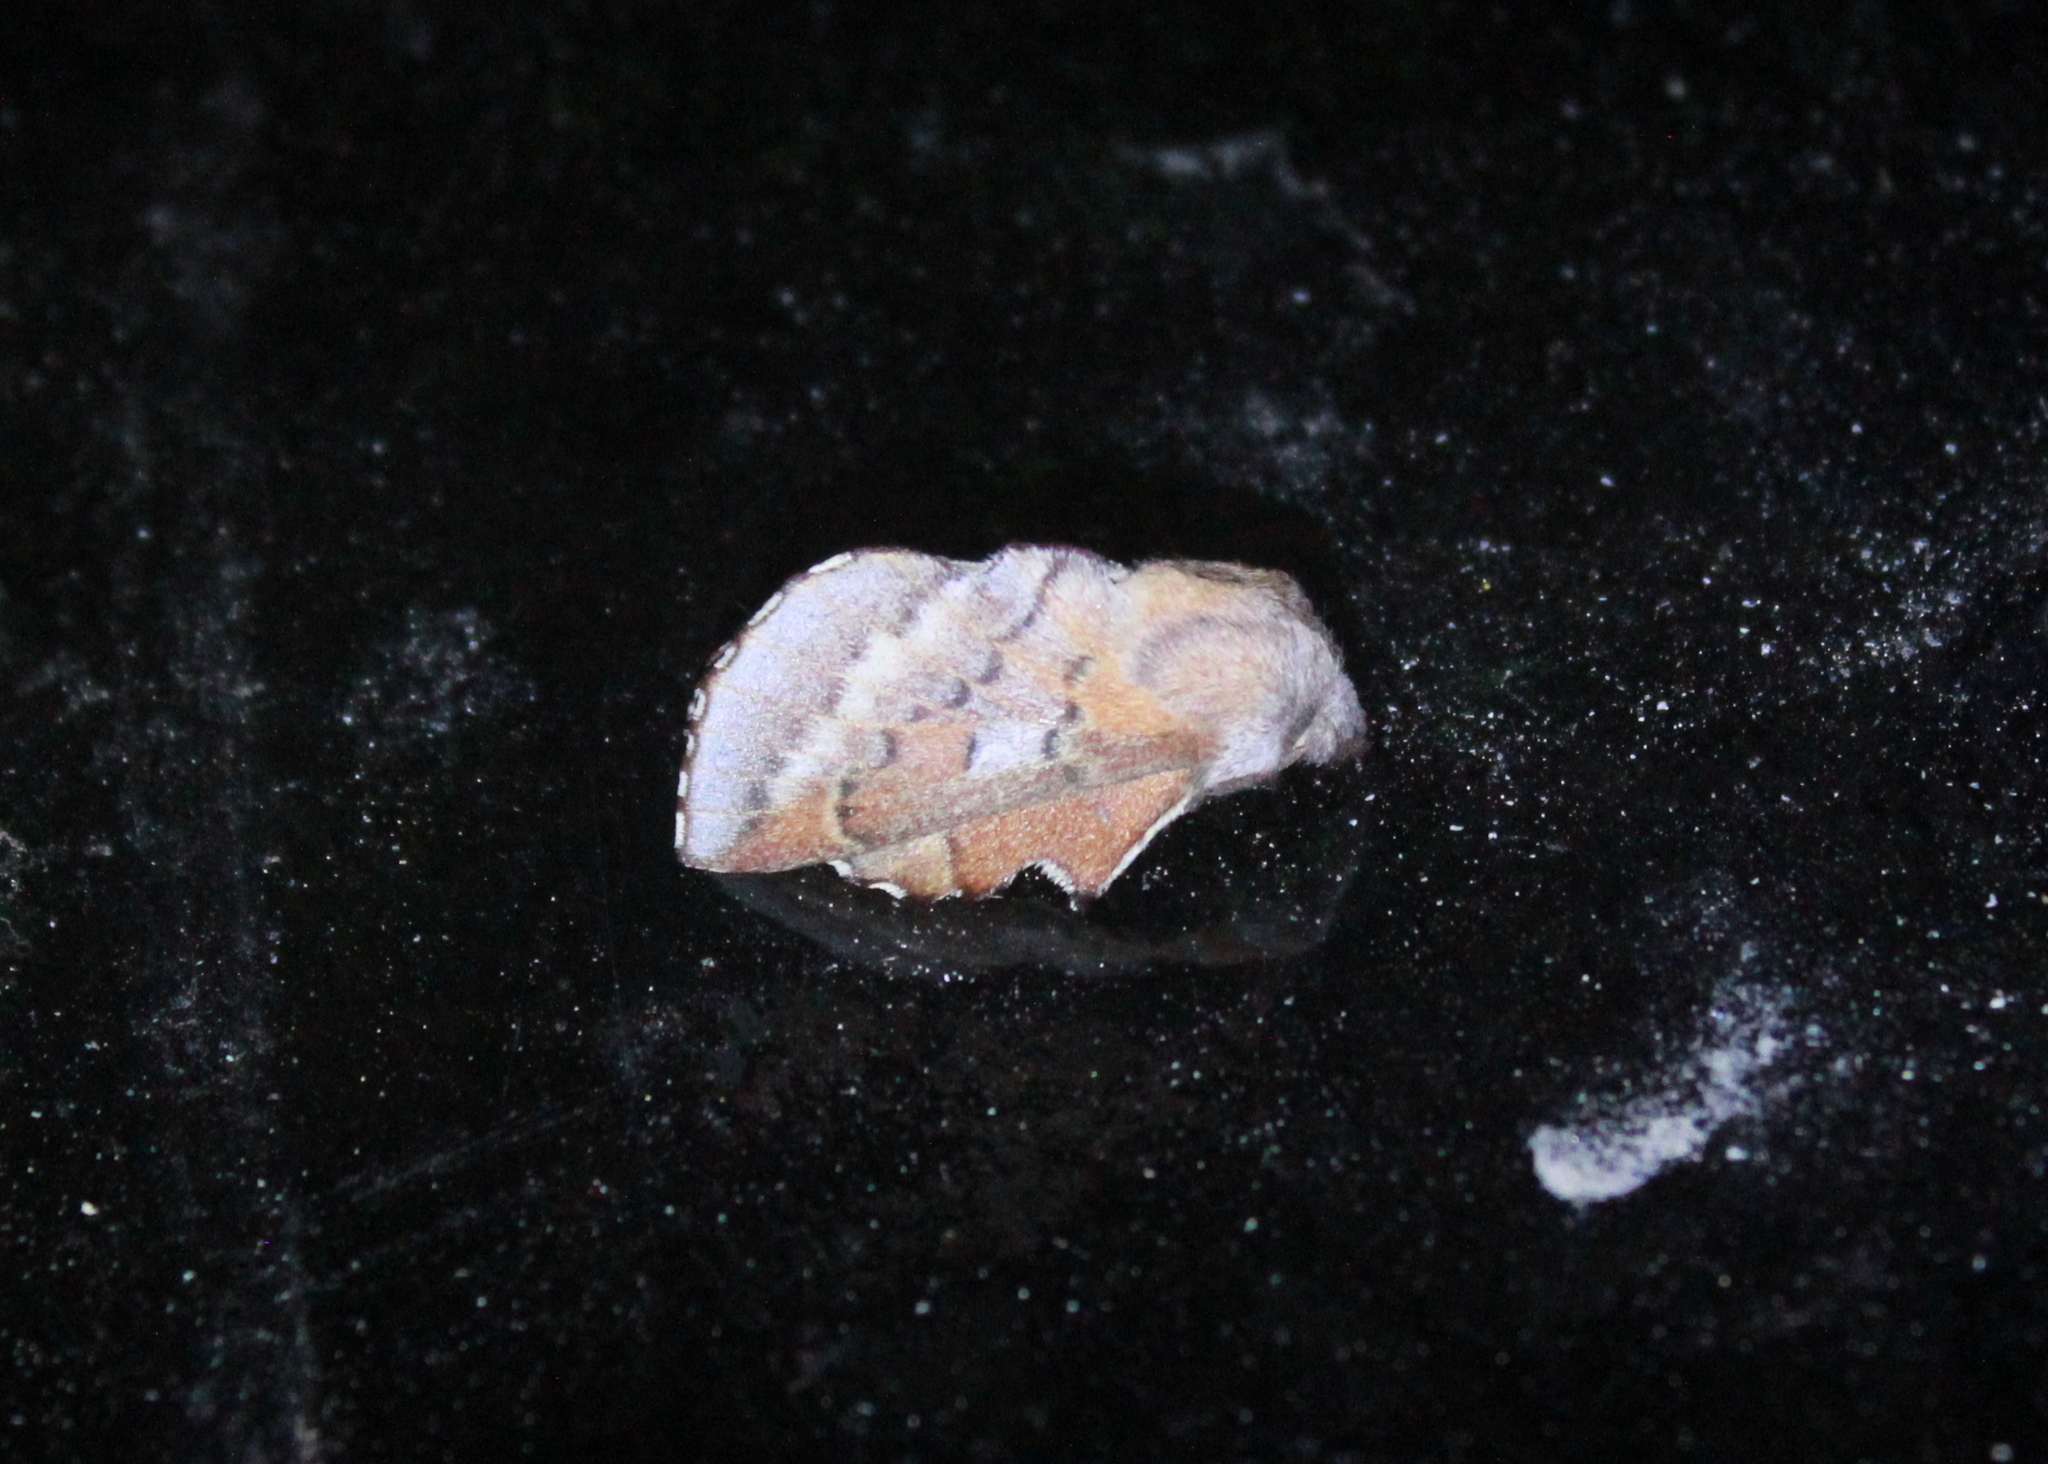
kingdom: Animalia
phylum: Arthropoda
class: Insecta
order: Lepidoptera
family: Lasiocampidae
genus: Phyllodesma
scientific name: Phyllodesma americana
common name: American lappet moth
